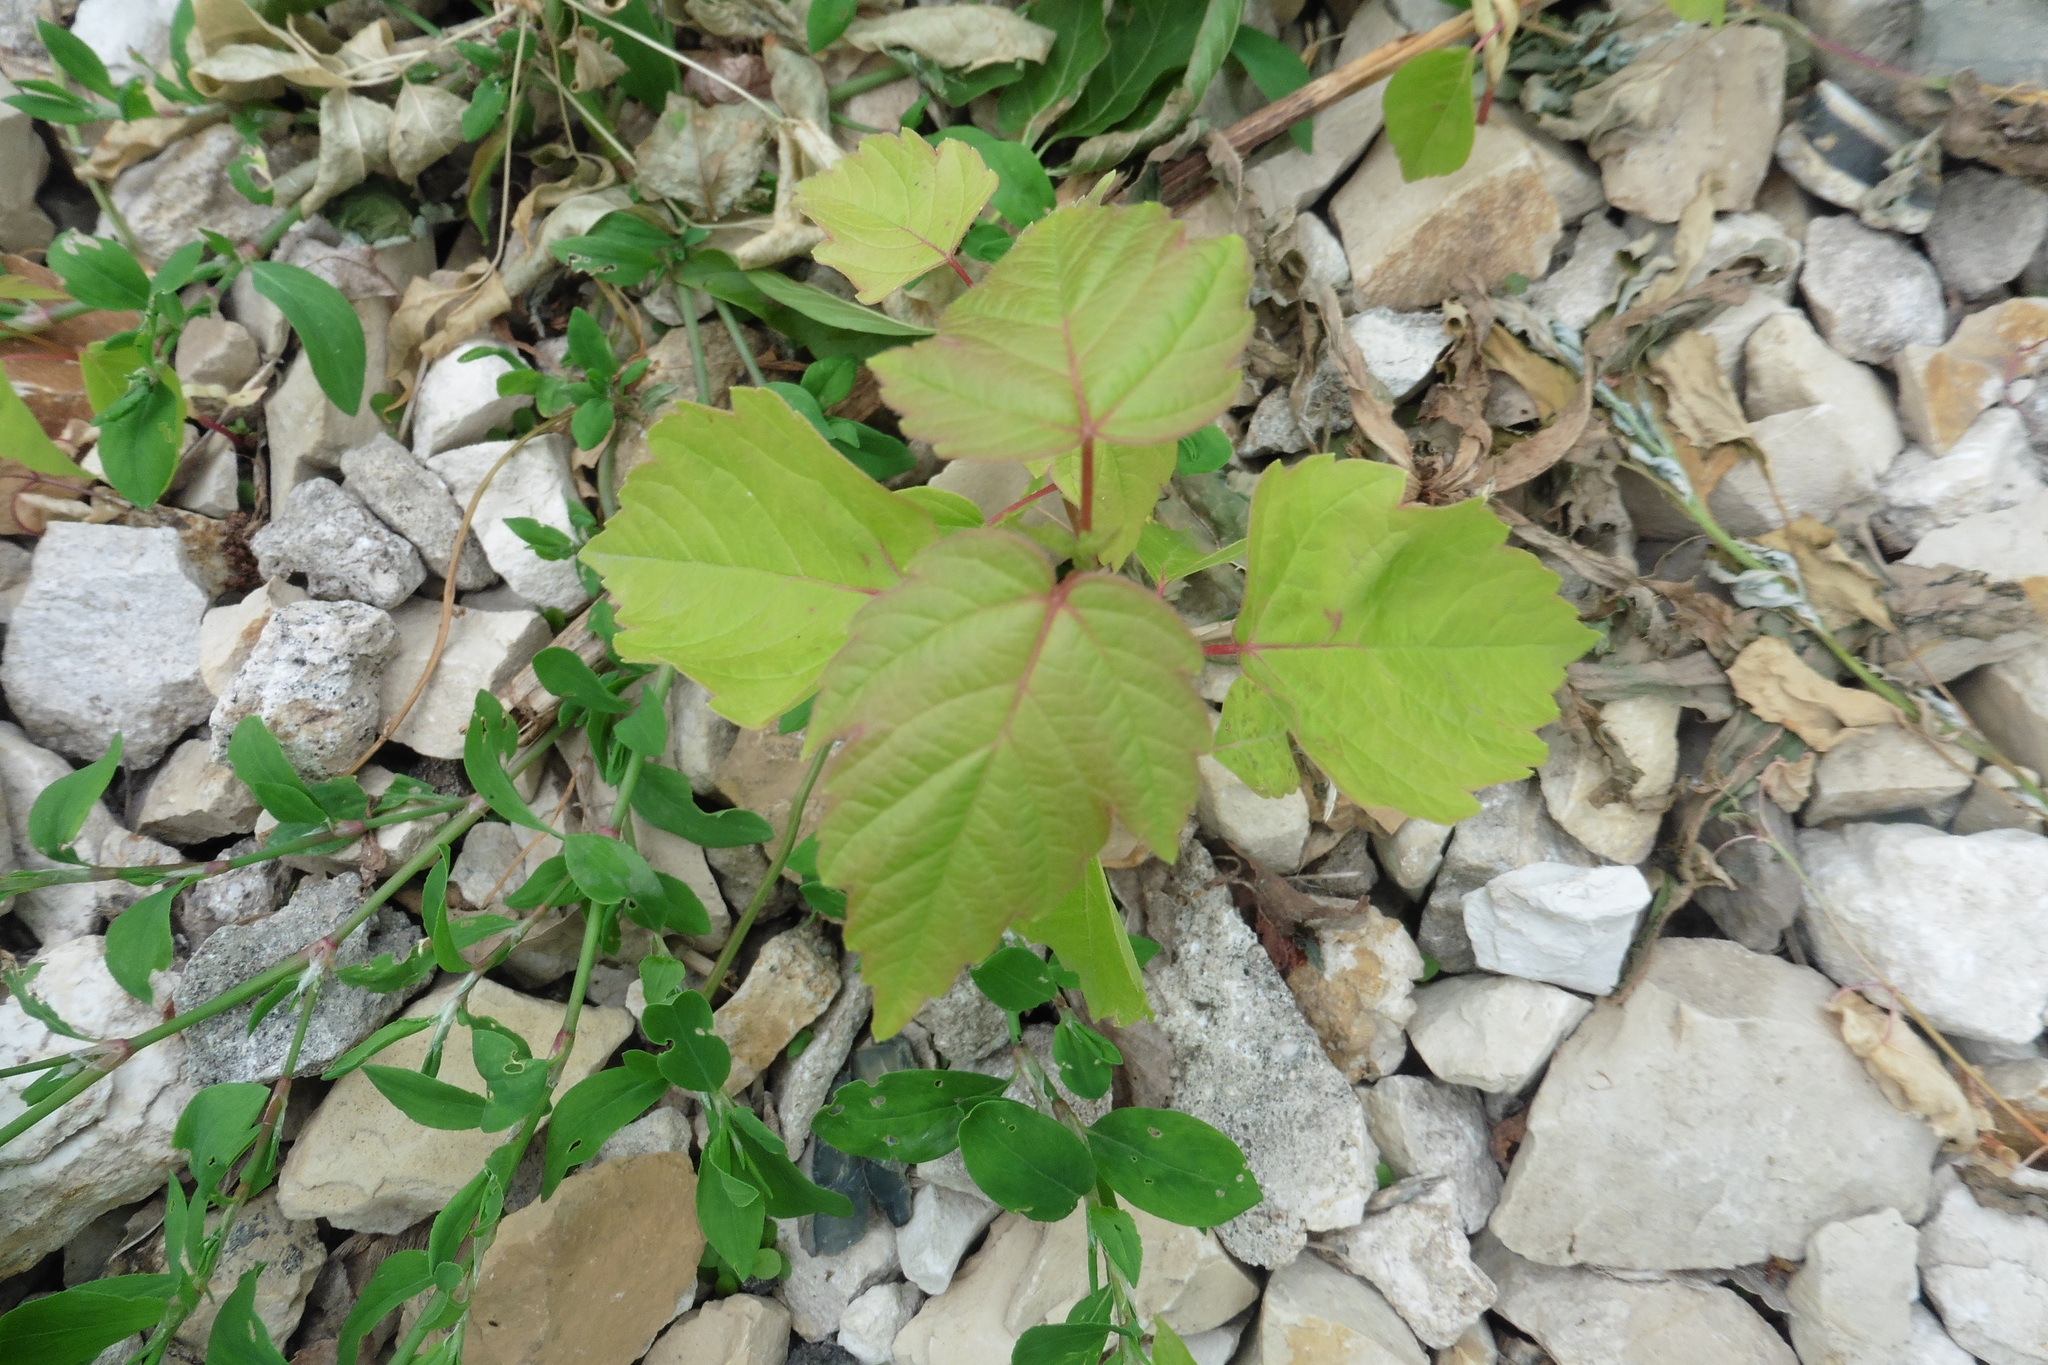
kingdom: Plantae
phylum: Tracheophyta
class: Magnoliopsida
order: Sapindales
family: Sapindaceae
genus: Acer
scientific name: Acer negundo
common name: Ashleaf maple
